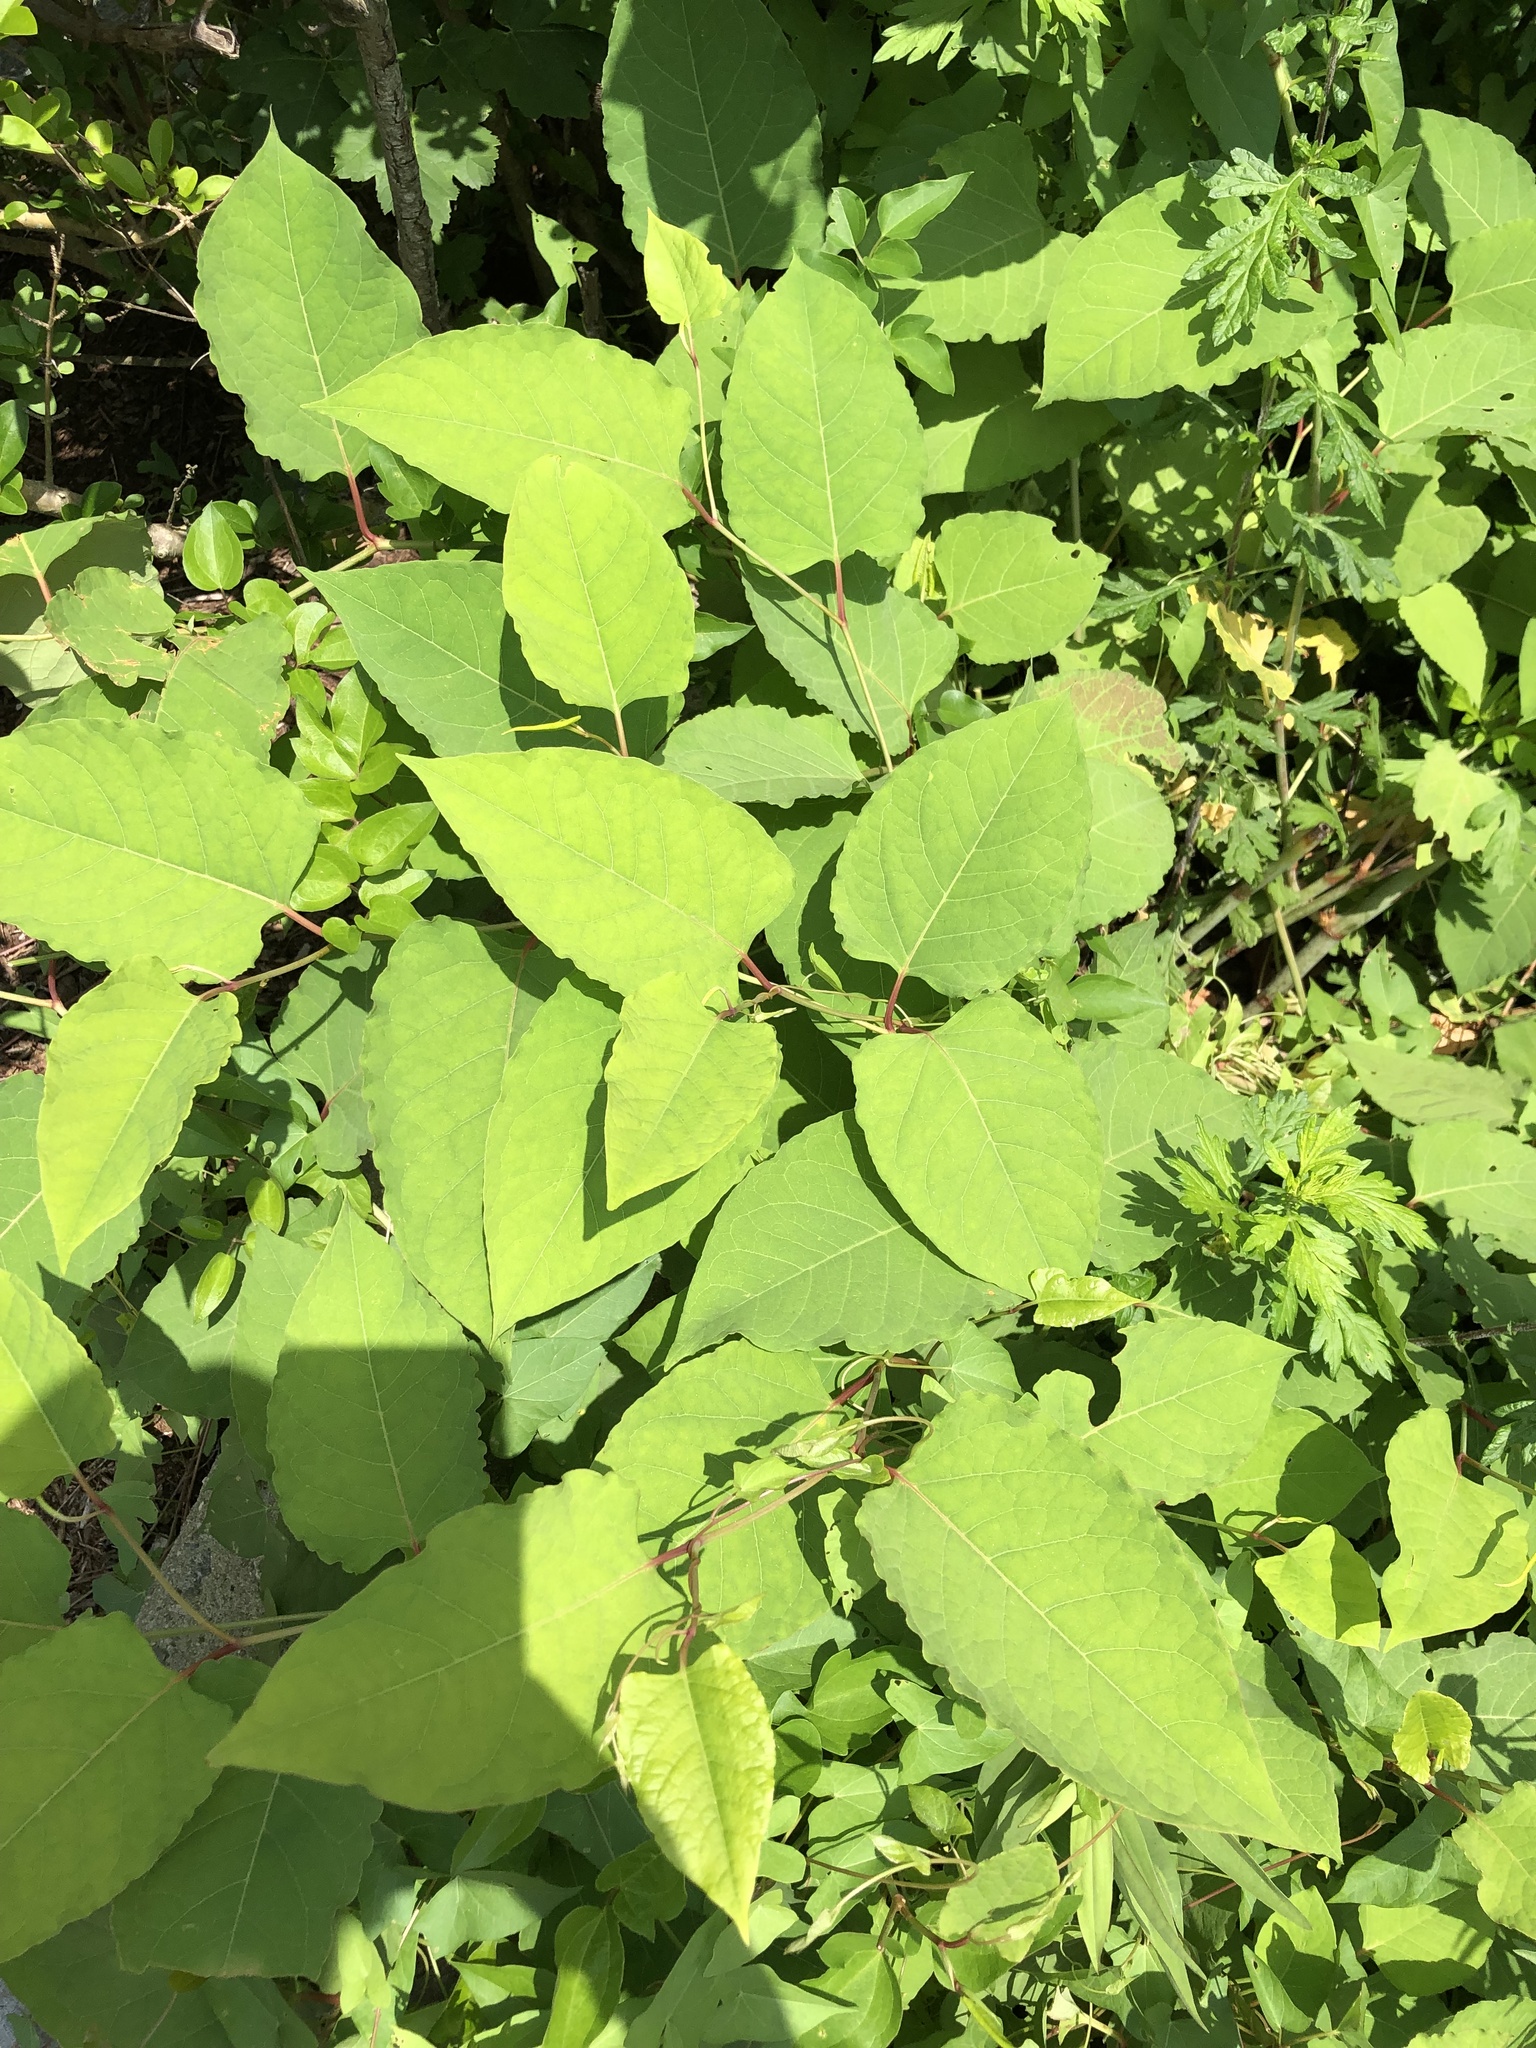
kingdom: Plantae
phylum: Tracheophyta
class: Magnoliopsida
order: Caryophyllales
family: Polygonaceae
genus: Reynoutria
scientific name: Reynoutria japonica
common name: Japanese knotweed
